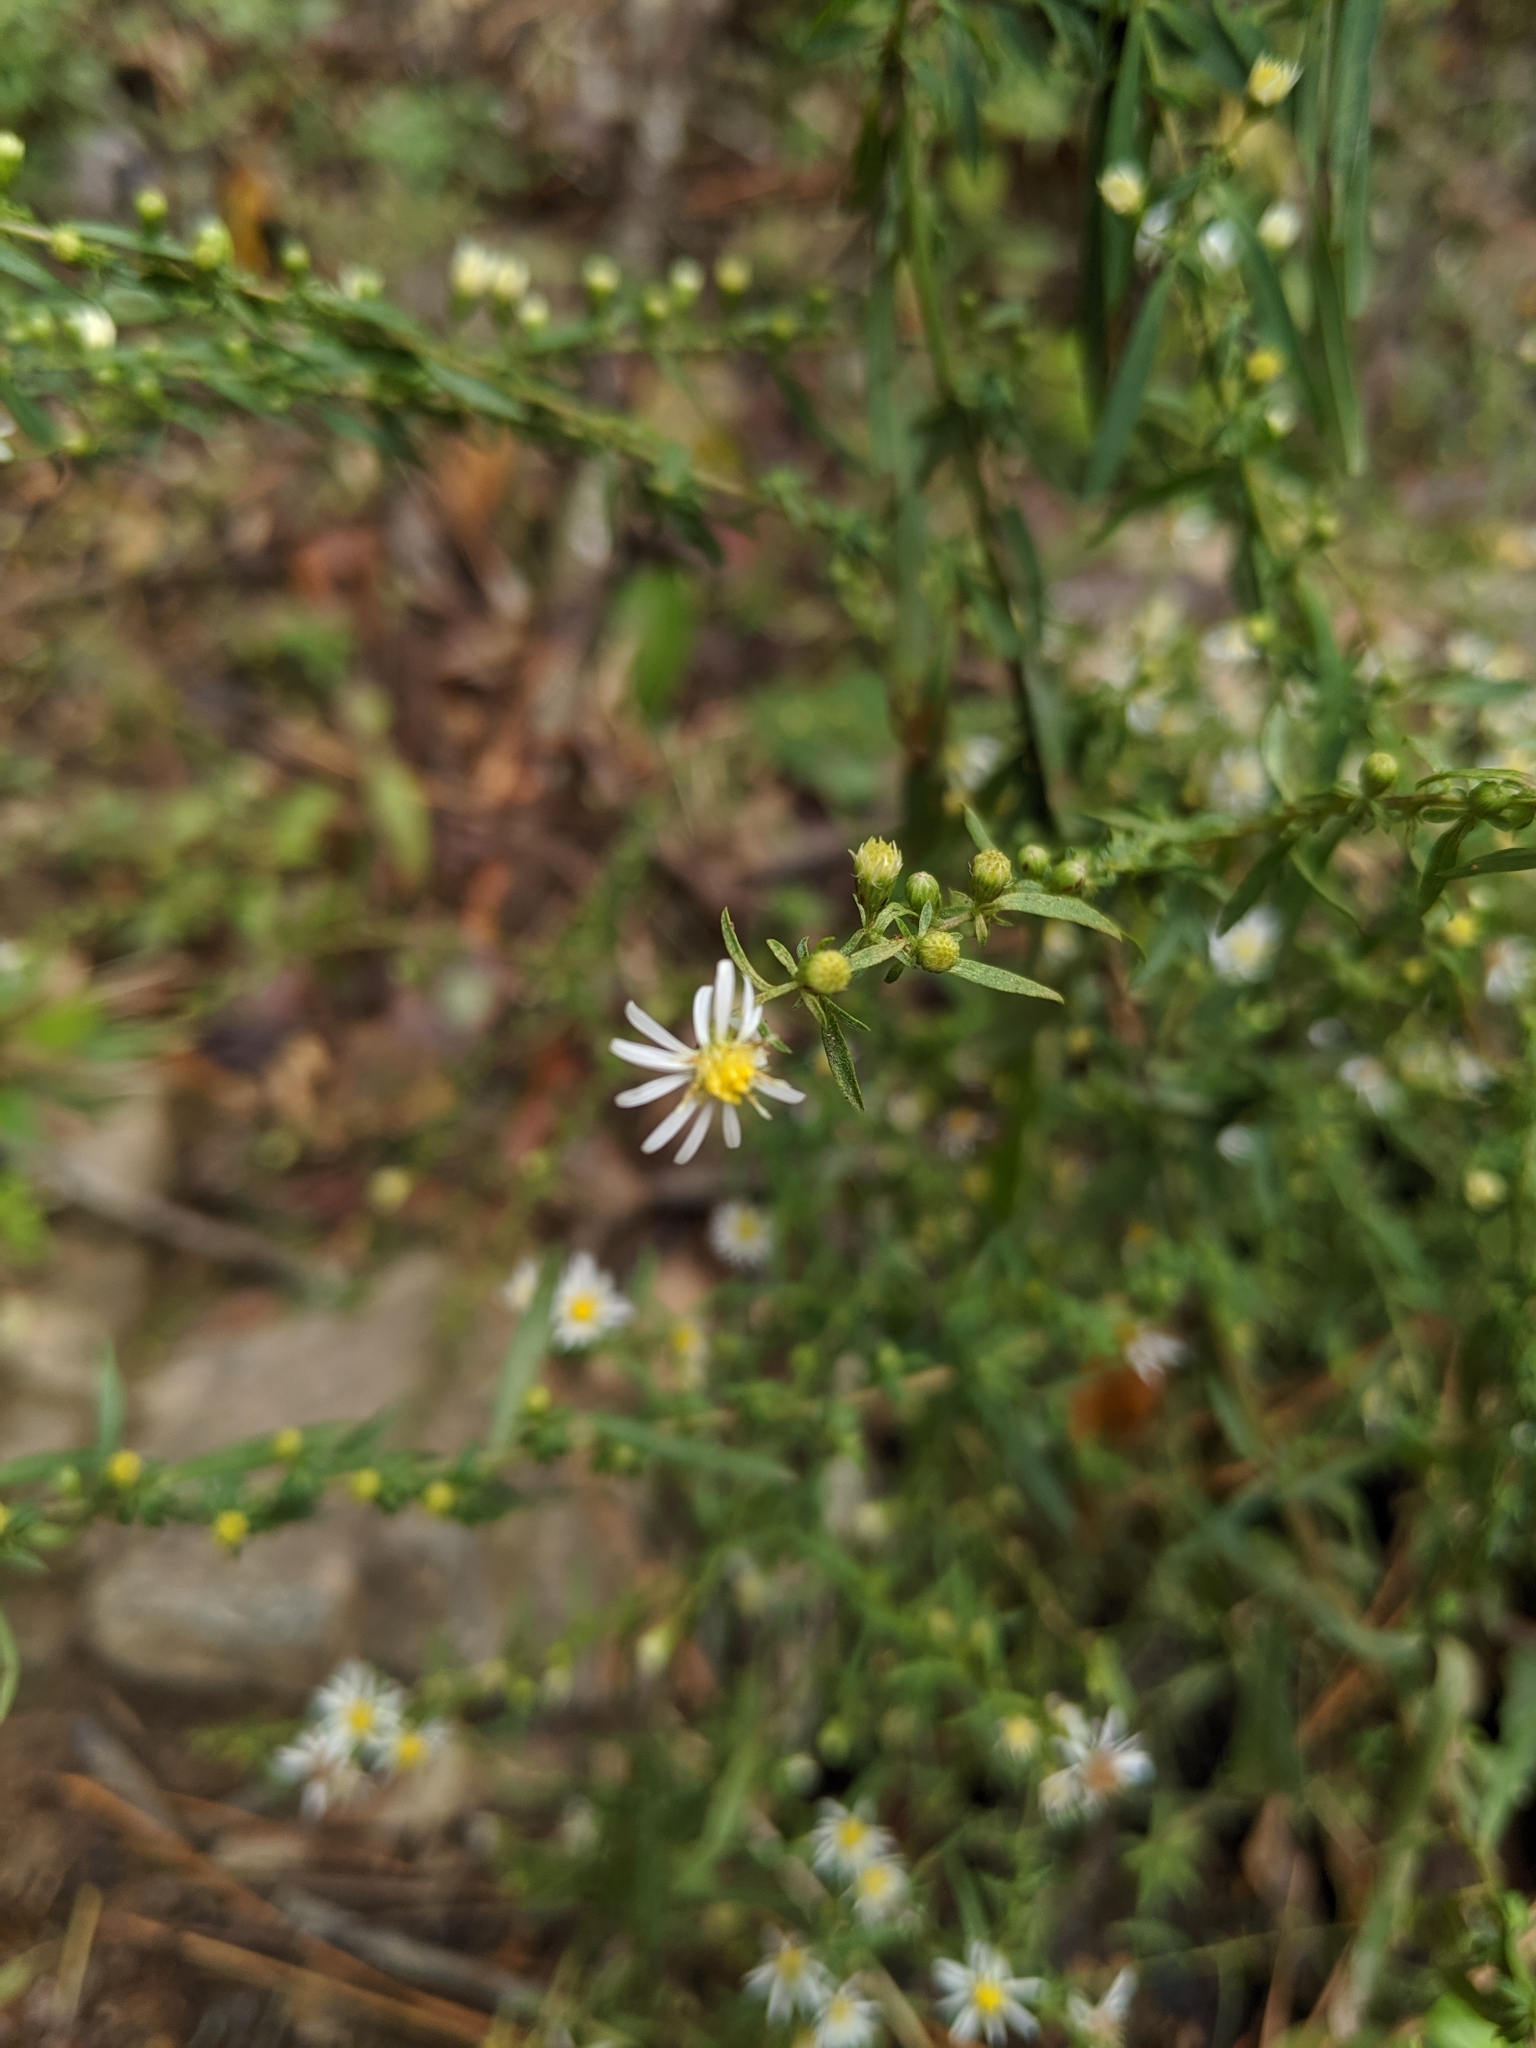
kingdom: Plantae
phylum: Tracheophyta
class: Magnoliopsida
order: Asterales
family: Asteraceae
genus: Symphyotrichum
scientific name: Symphyotrichum racemosum
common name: Small white aster
